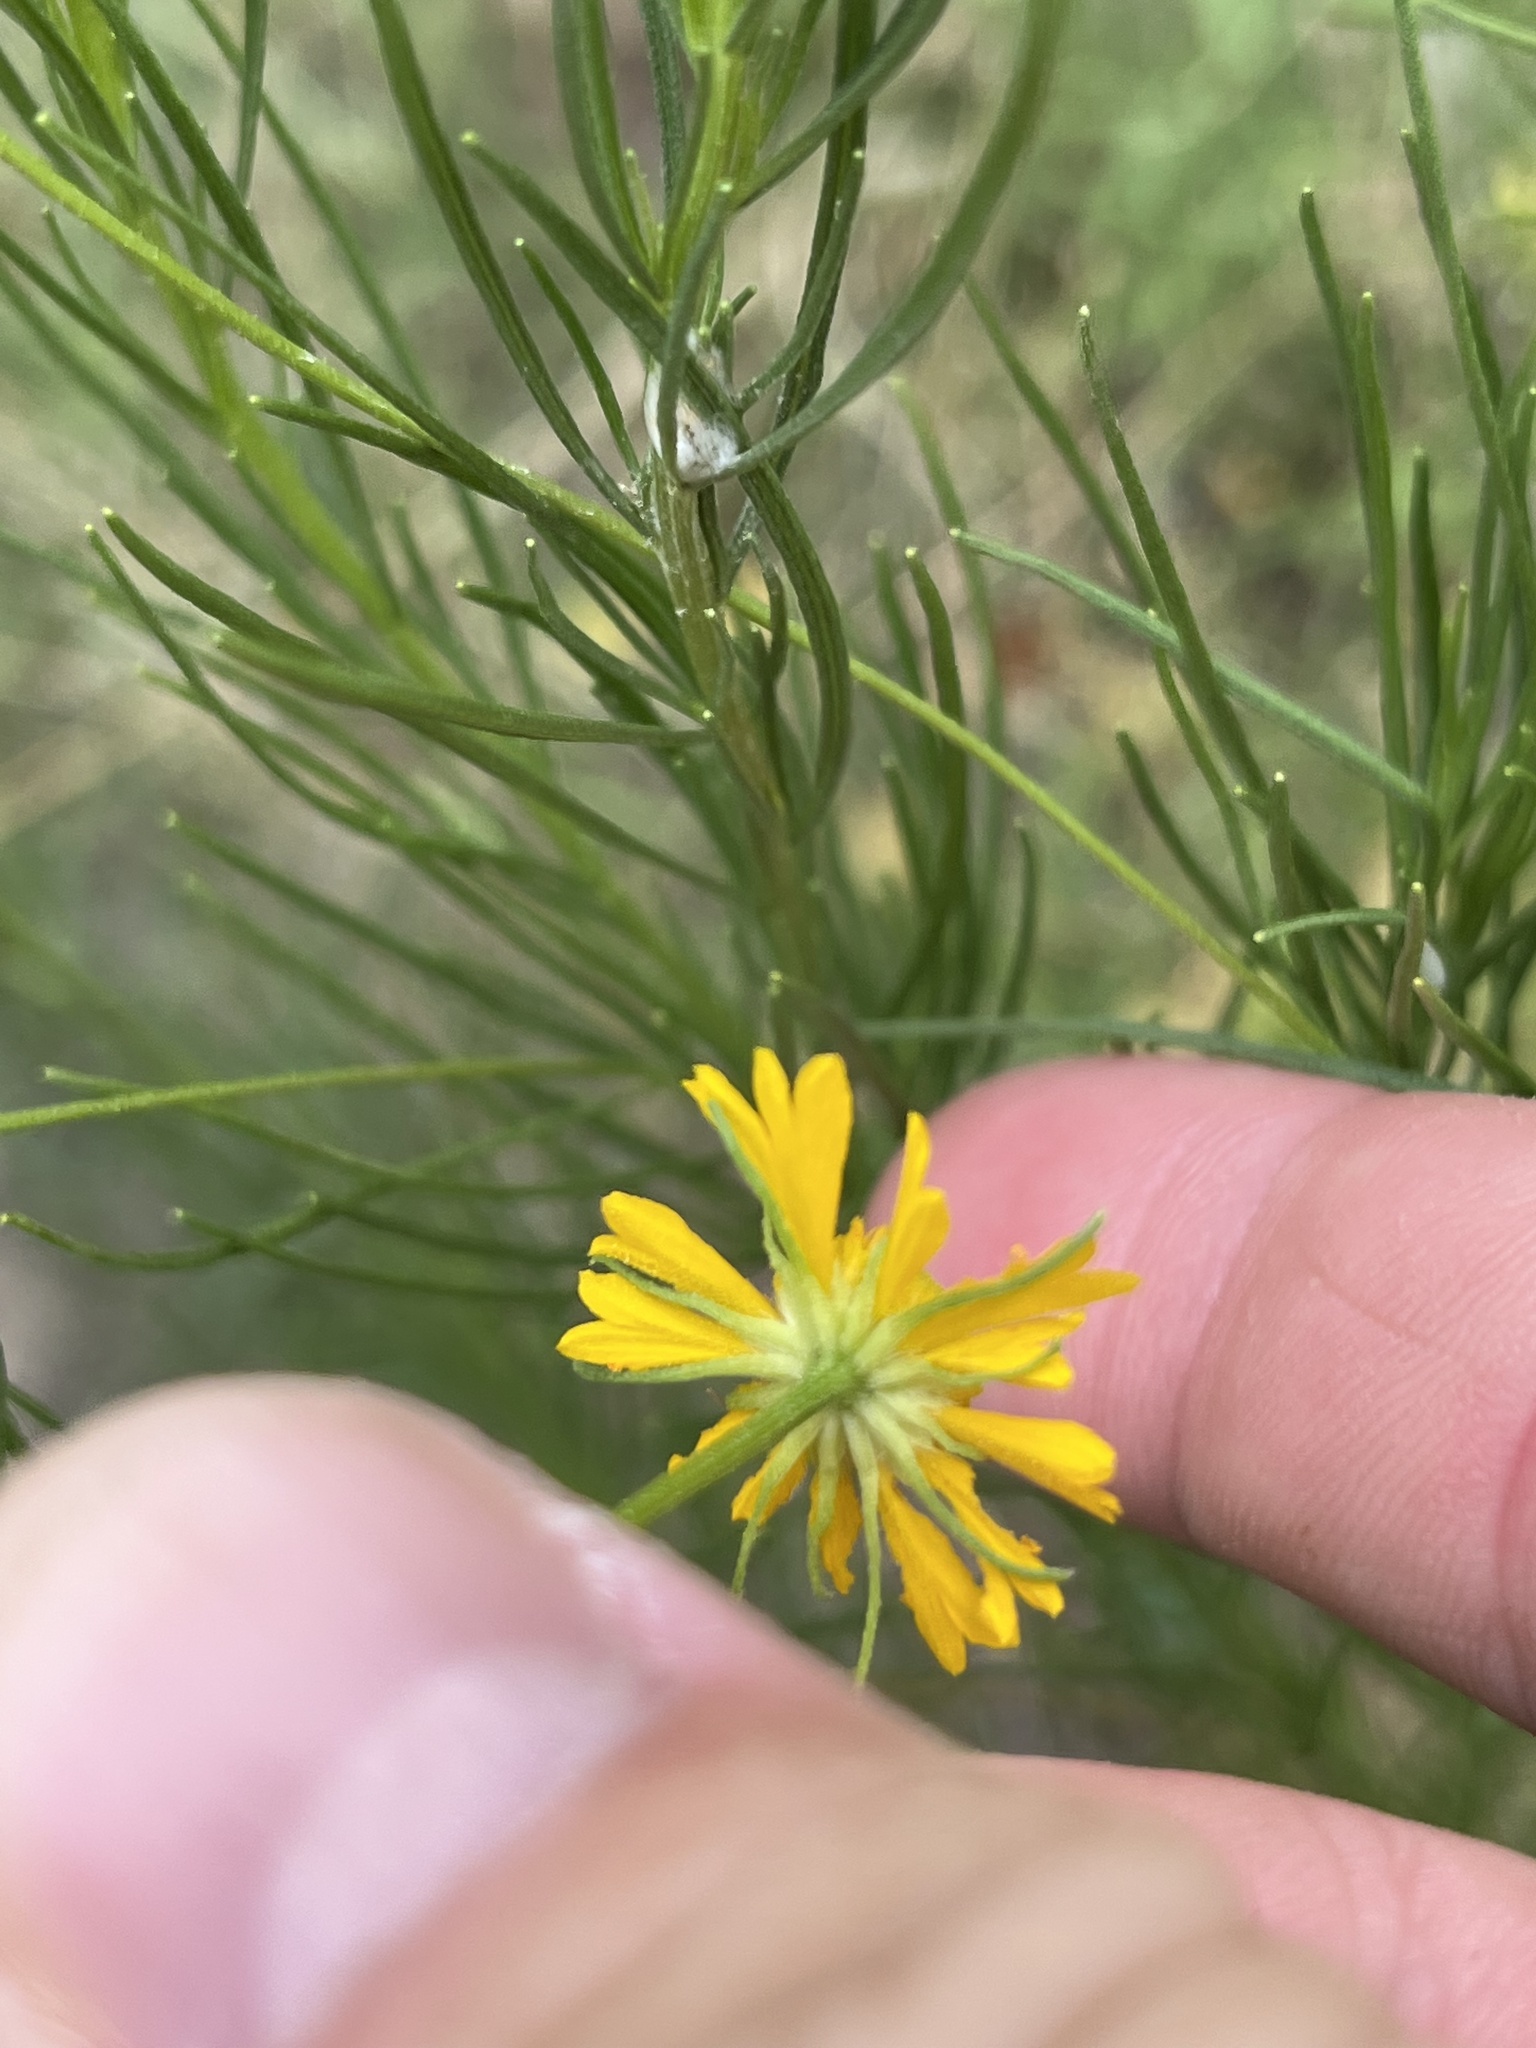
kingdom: Plantae
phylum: Tracheophyta
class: Magnoliopsida
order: Asterales
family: Asteraceae
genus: Helenium
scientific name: Helenium amarum
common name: Bitter sneezeweed
